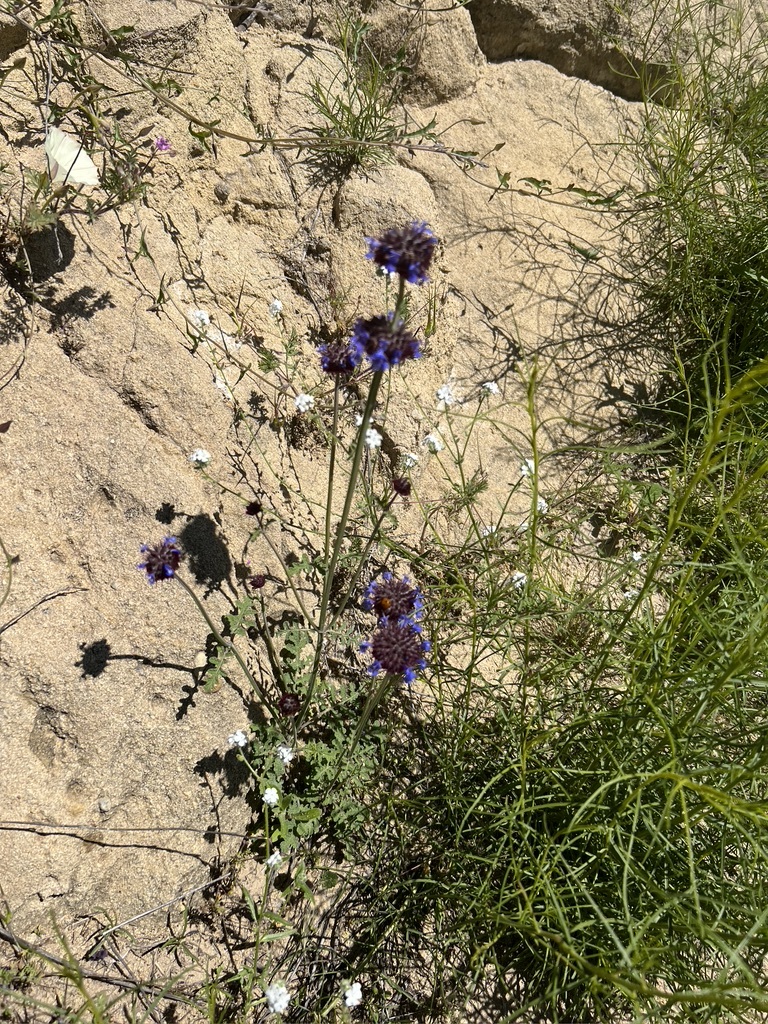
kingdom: Plantae
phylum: Tracheophyta
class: Magnoliopsida
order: Lamiales
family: Lamiaceae
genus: Salvia
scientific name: Salvia columbariae
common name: Chia
